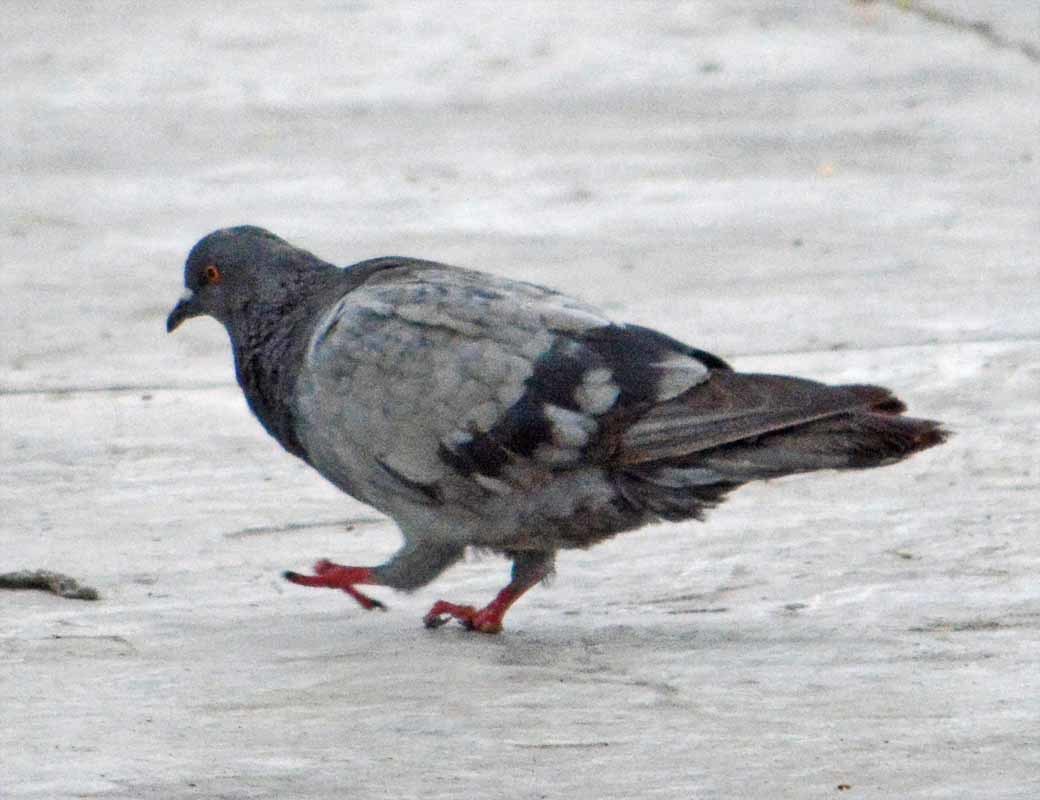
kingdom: Animalia
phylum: Chordata
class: Aves
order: Columbiformes
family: Columbidae
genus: Columba
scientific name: Columba livia
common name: Rock pigeon
